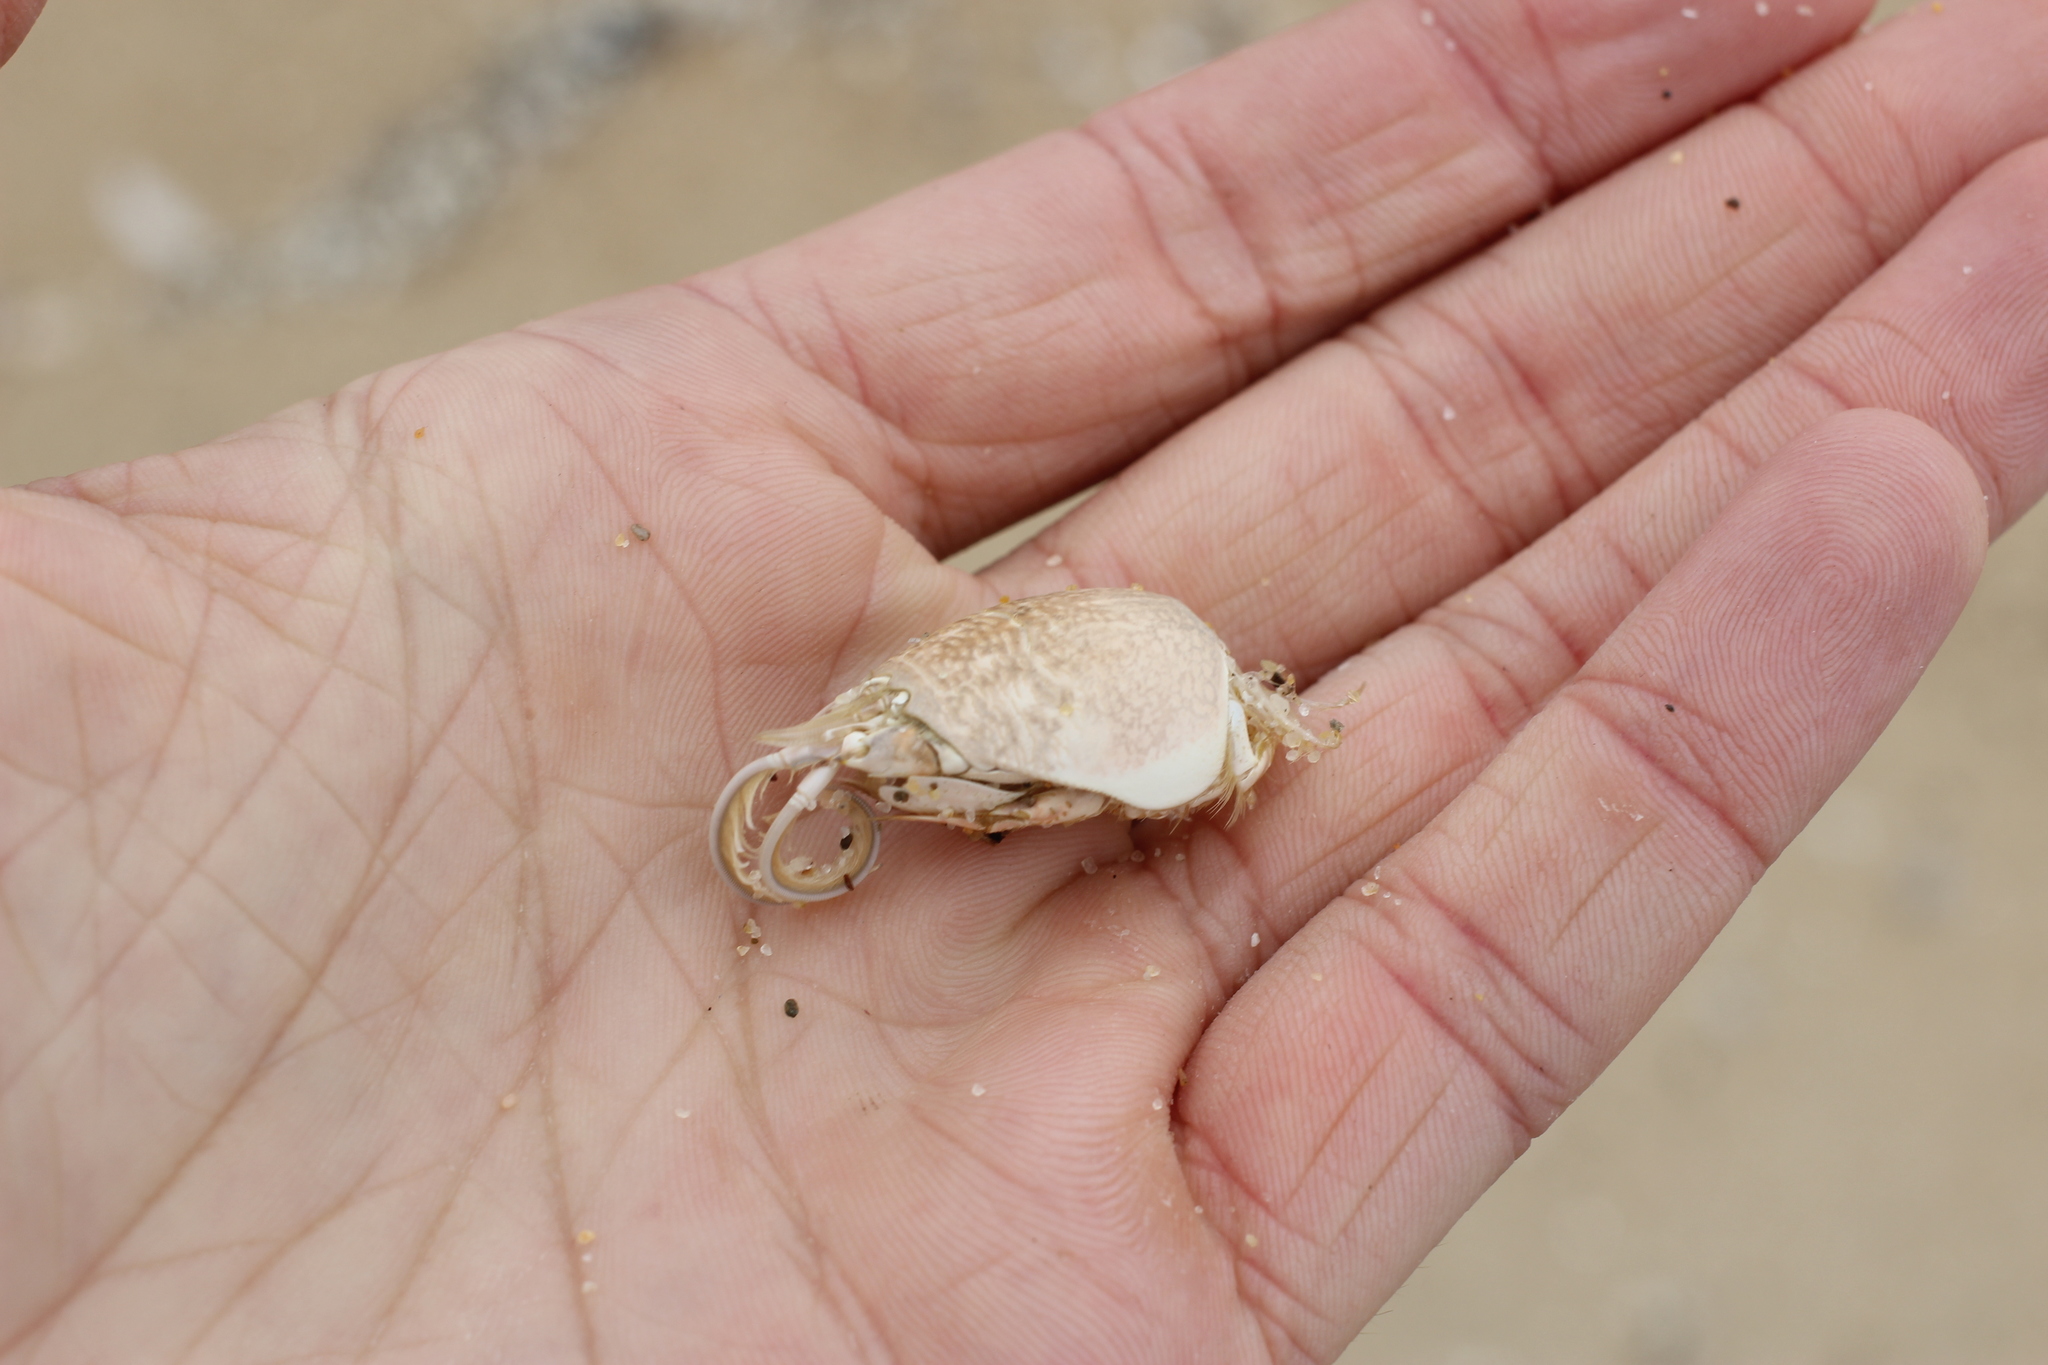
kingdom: Animalia
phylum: Arthropoda
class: Malacostraca
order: Decapoda
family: Hippidae
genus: Emerita
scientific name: Emerita analoga
